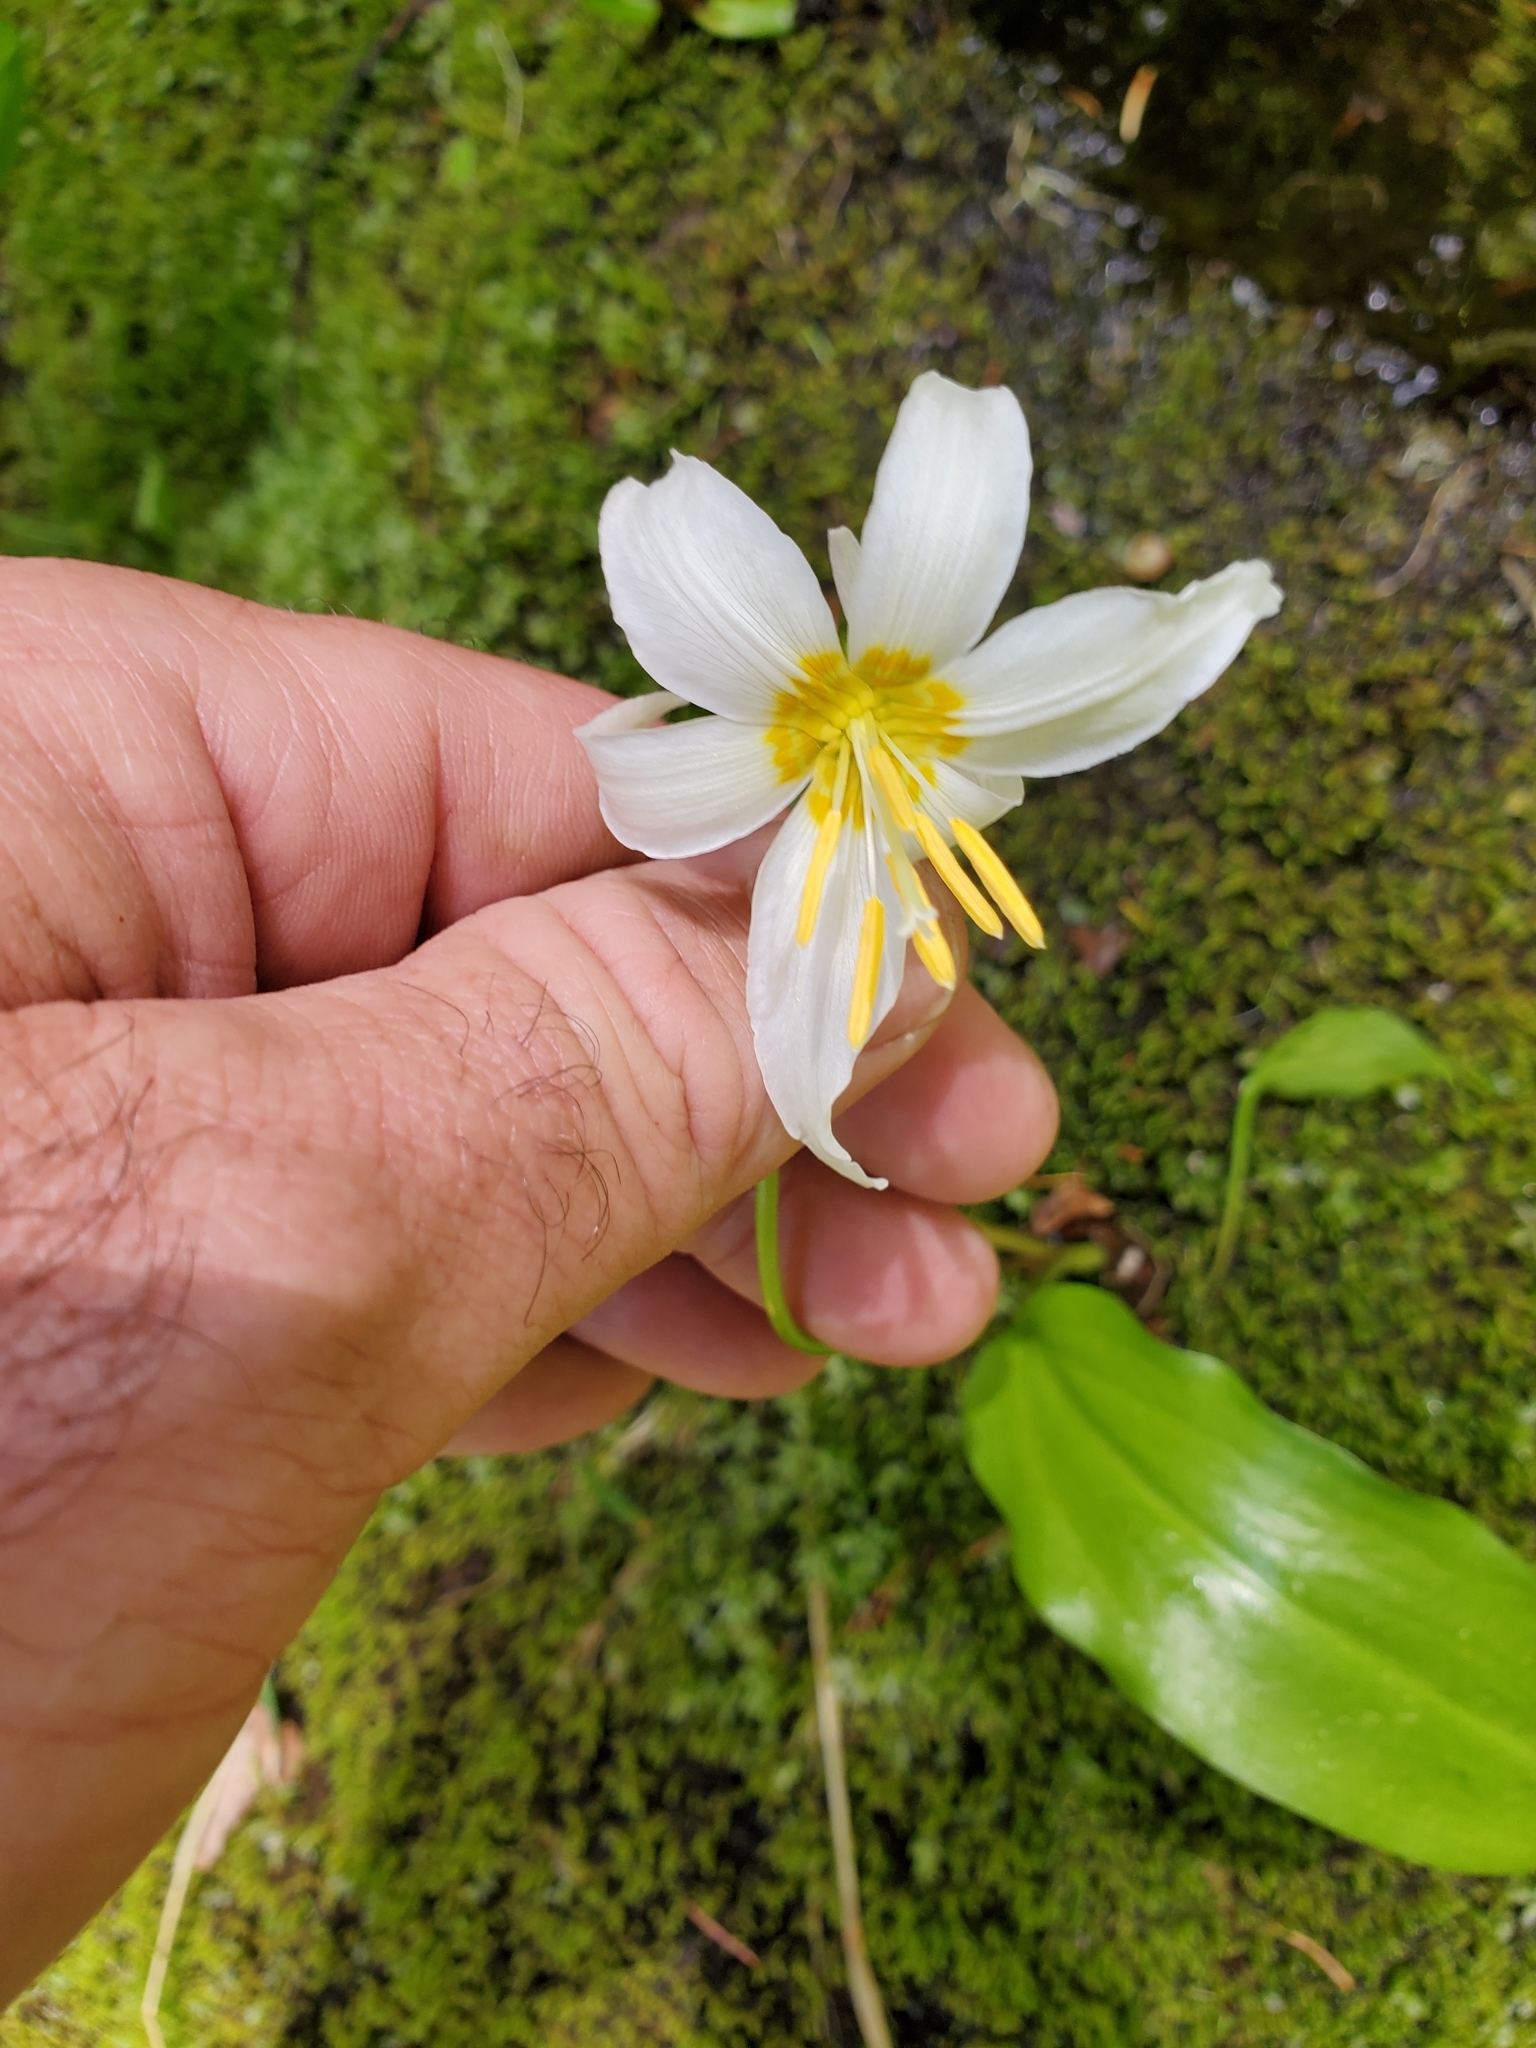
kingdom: Plantae
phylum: Tracheophyta
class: Liliopsida
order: Liliales
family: Liliaceae
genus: Erythronium
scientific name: Erythronium montanum
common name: Avalanche lily
